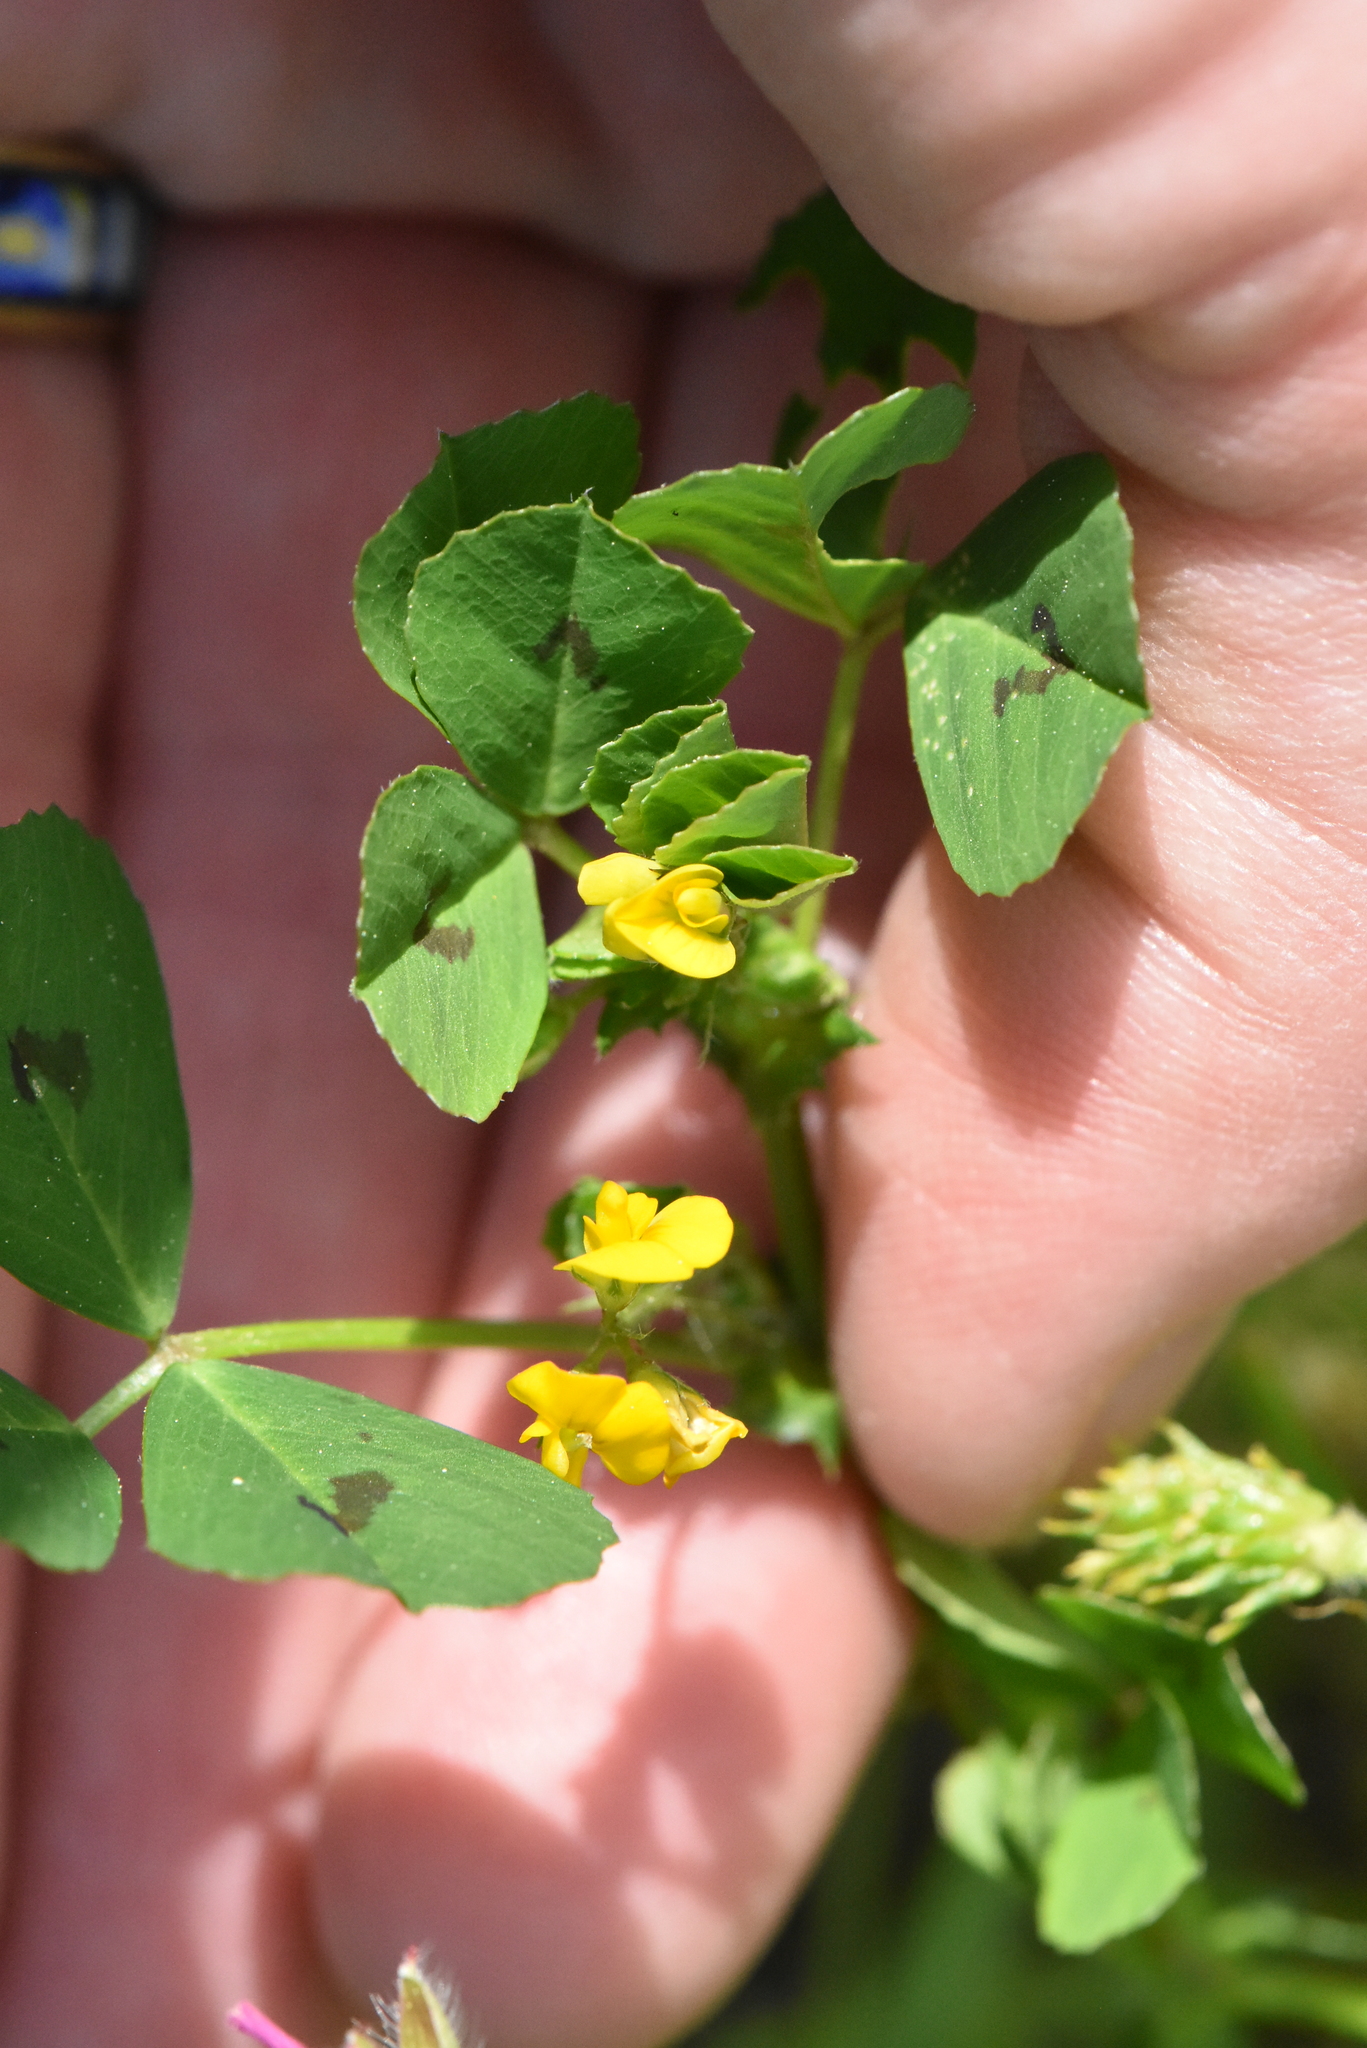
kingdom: Plantae
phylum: Tracheophyta
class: Magnoliopsida
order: Fabales
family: Fabaceae
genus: Medicago
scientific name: Medicago arabica
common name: Spotted medick
